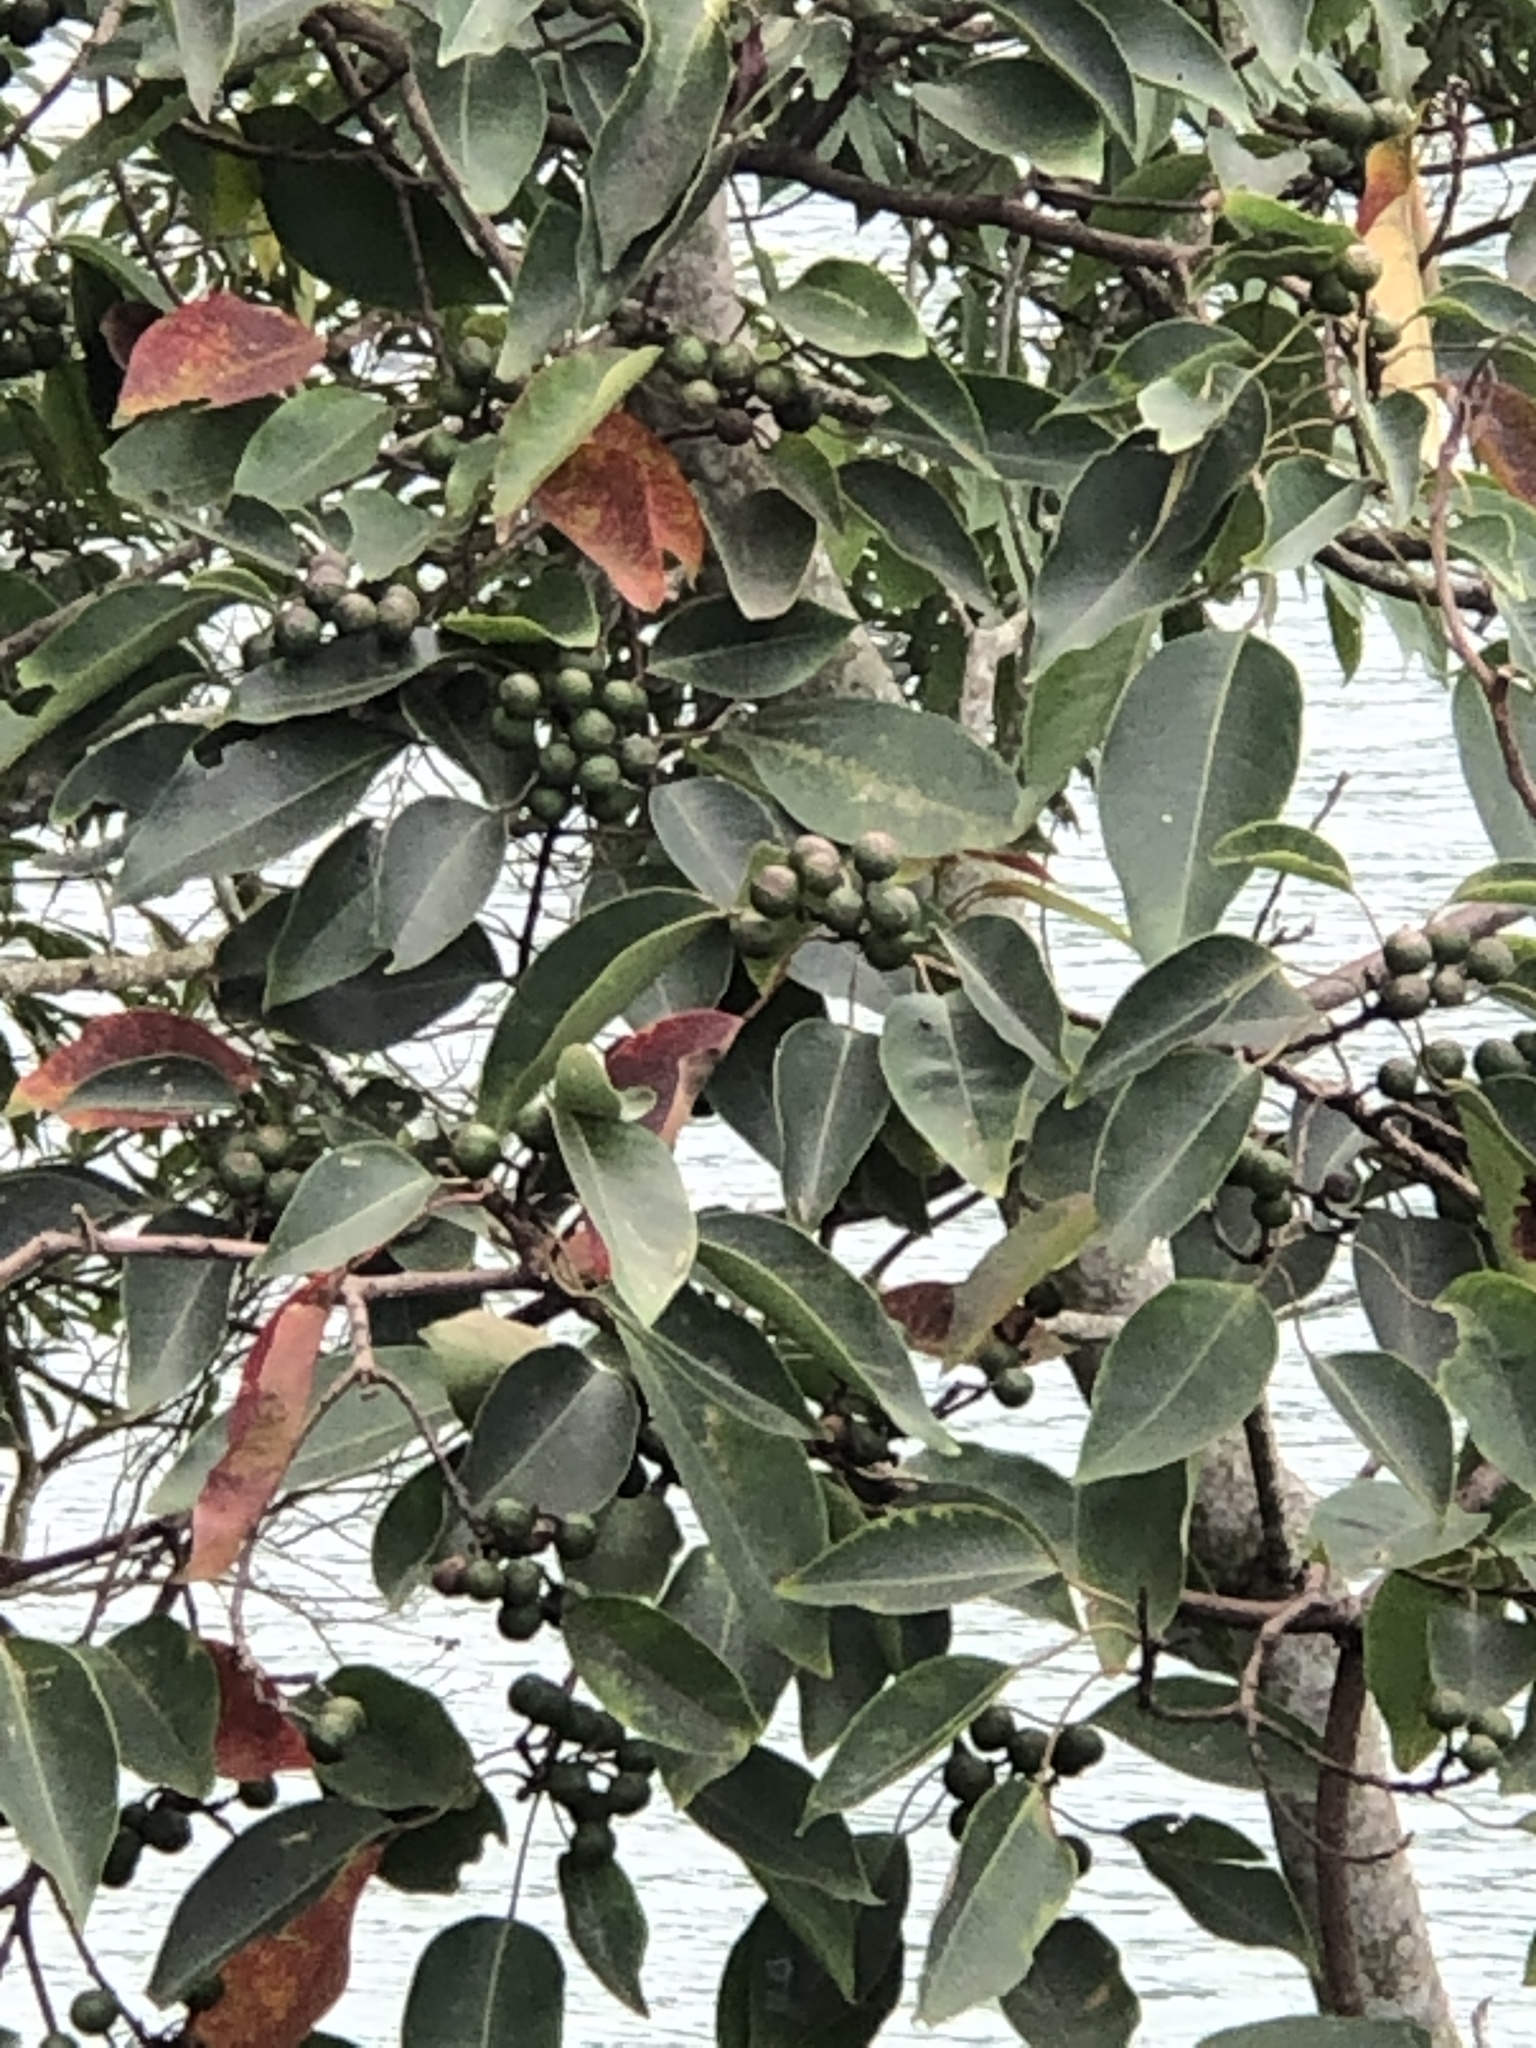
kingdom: Plantae
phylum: Tracheophyta
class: Magnoliopsida
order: Malpighiales
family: Euphorbiaceae
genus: Triadica
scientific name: Triadica cochinchinensis
